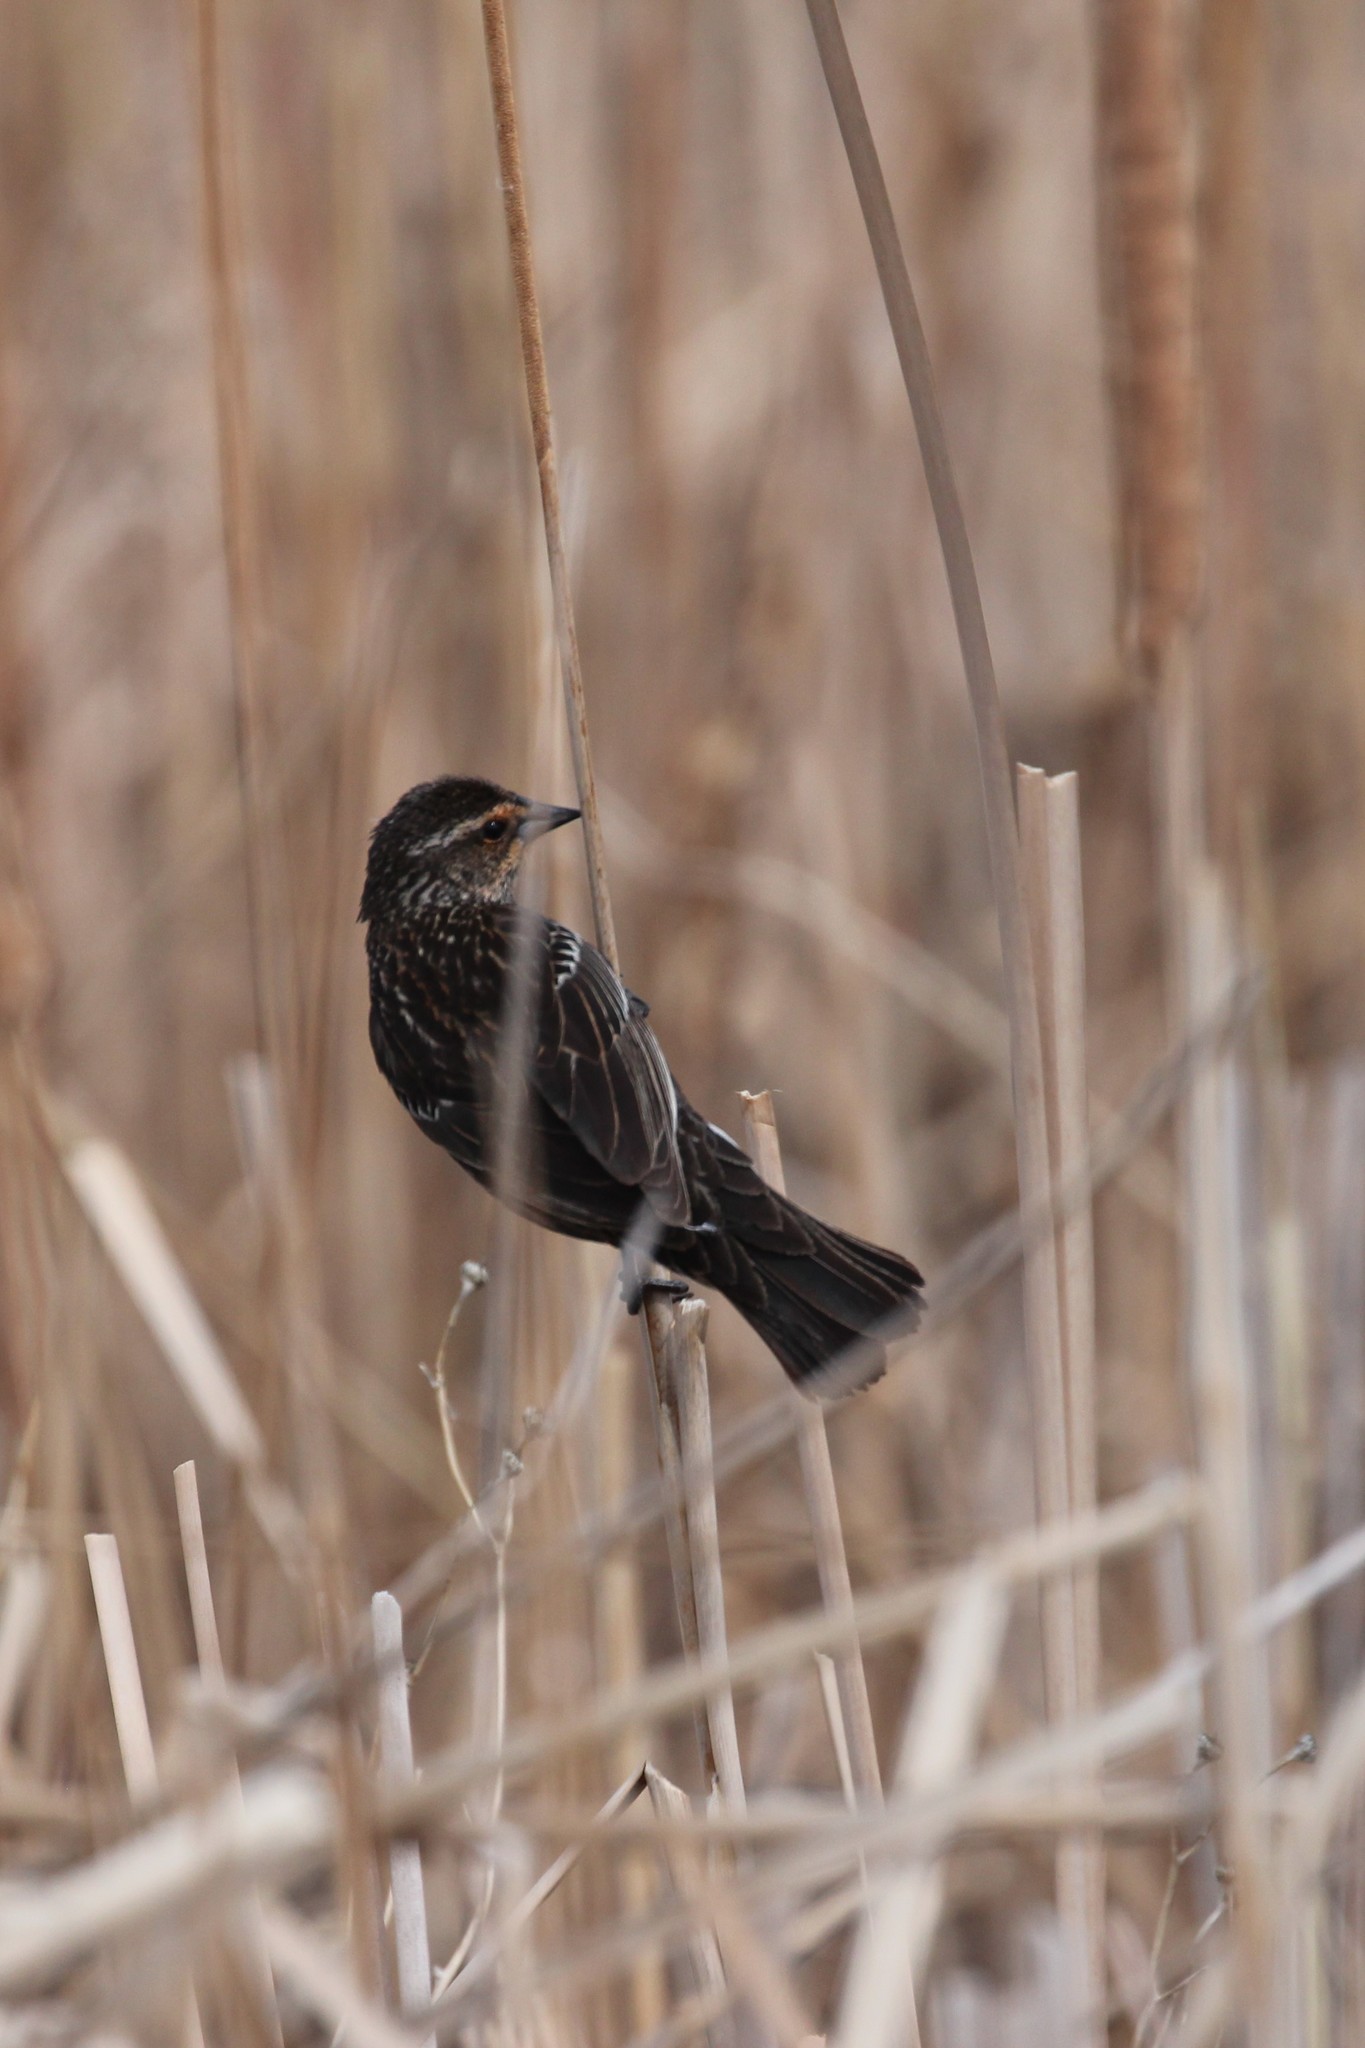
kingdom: Animalia
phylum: Chordata
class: Aves
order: Passeriformes
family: Icteridae
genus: Agelaius
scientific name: Agelaius phoeniceus
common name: Red-winged blackbird
